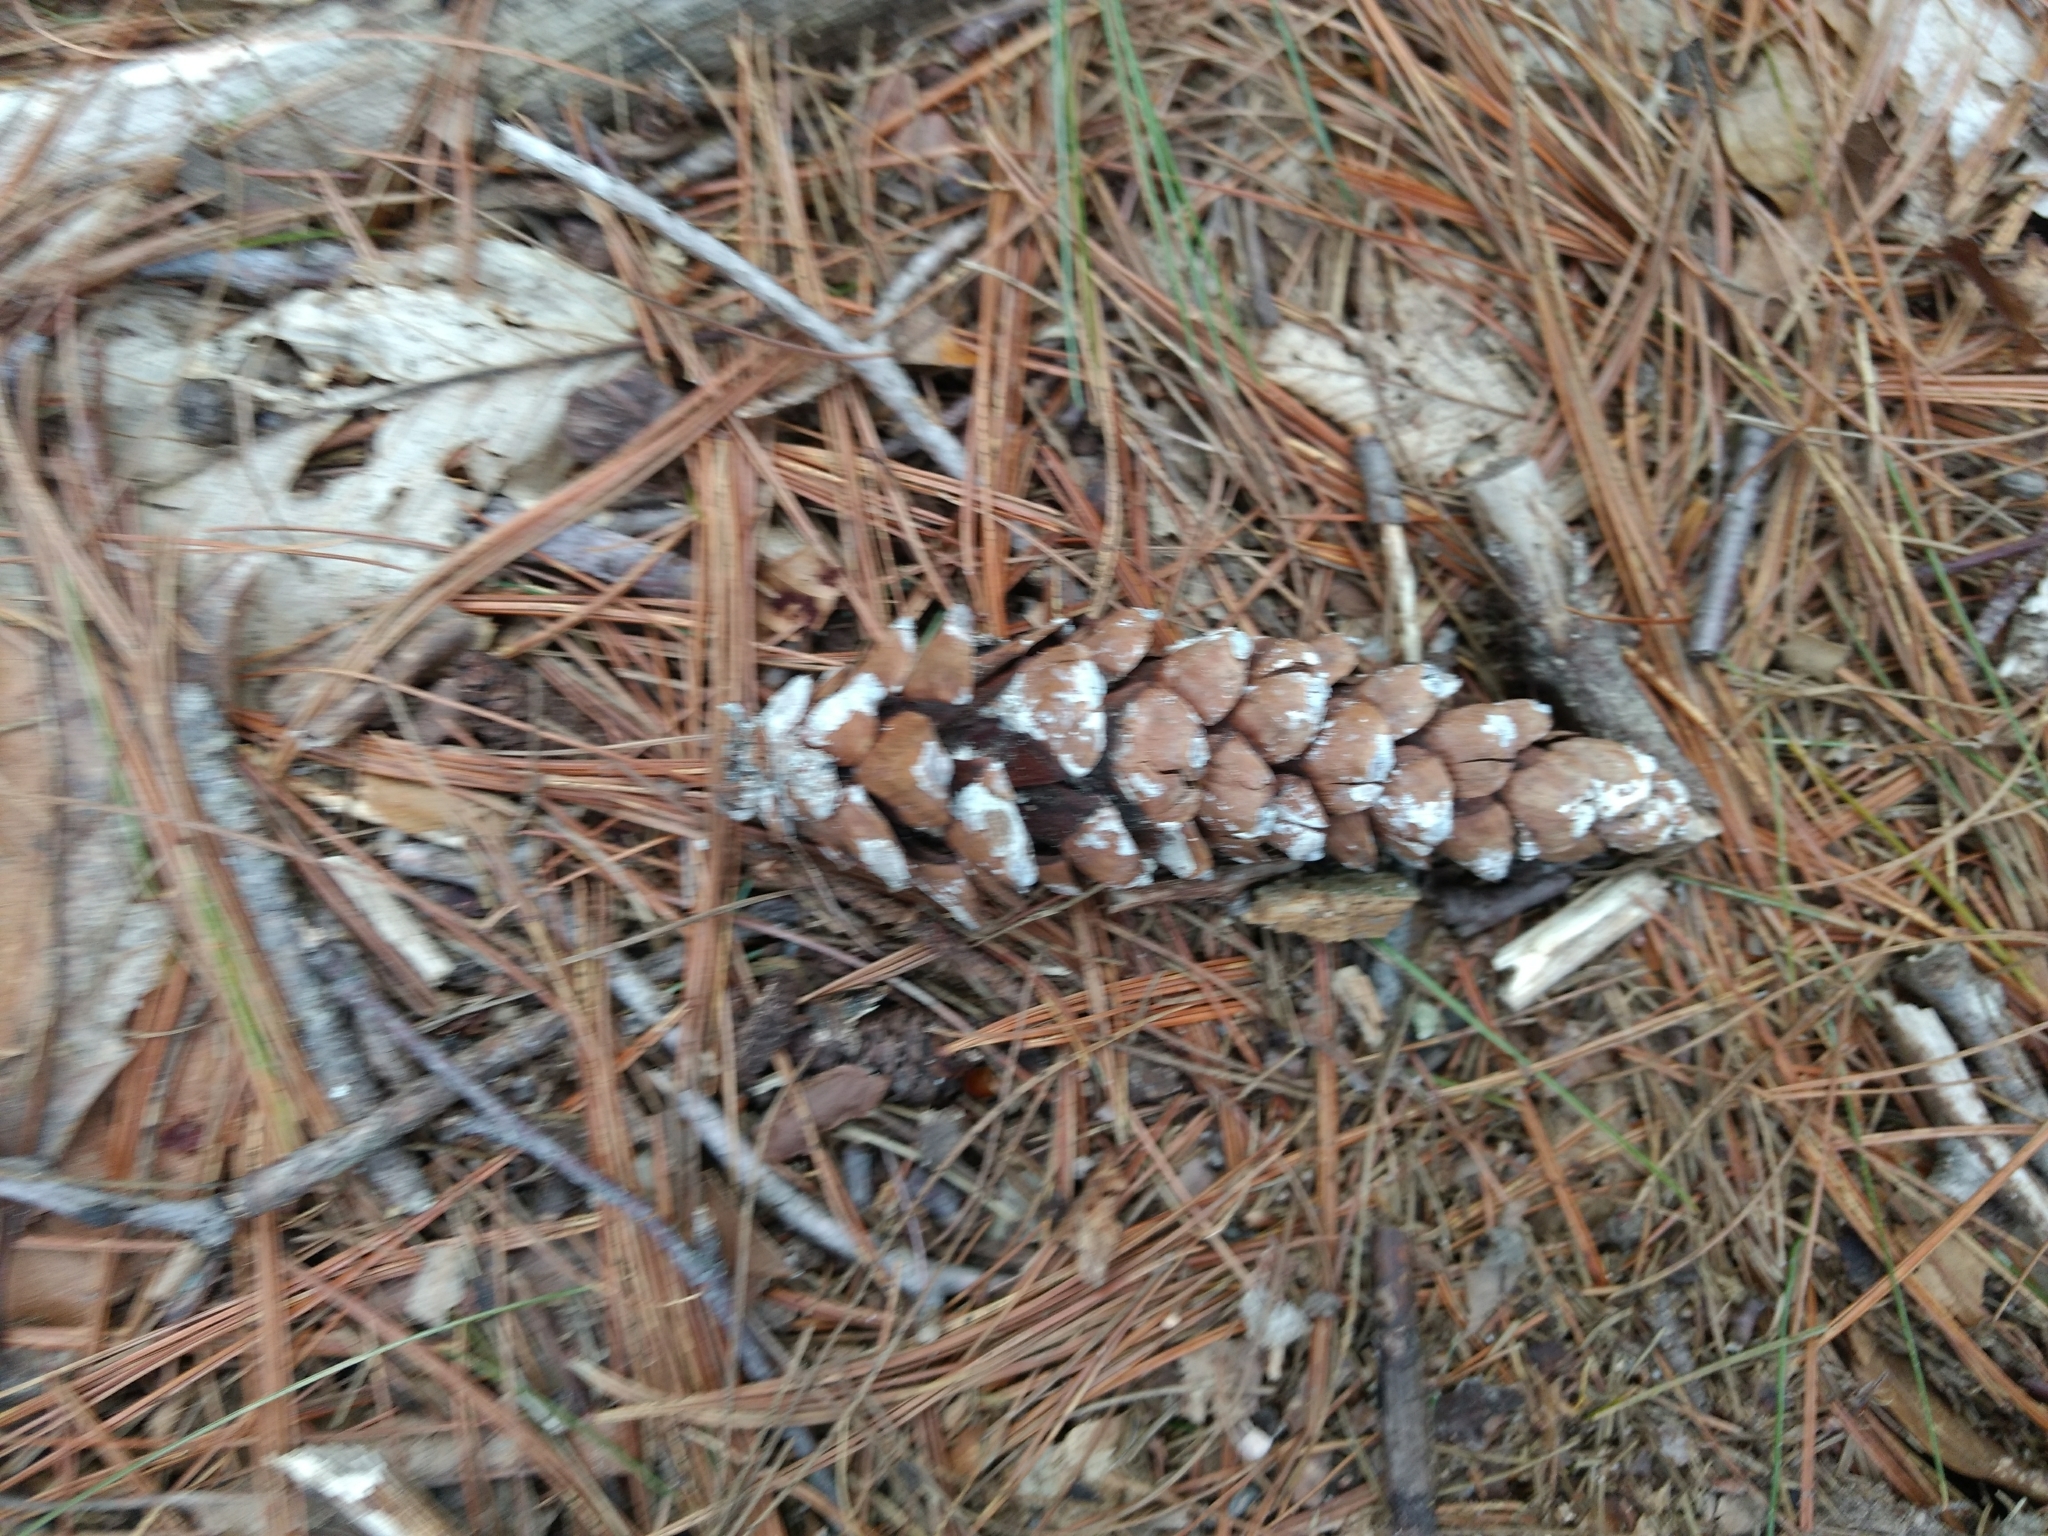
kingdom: Plantae
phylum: Tracheophyta
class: Pinopsida
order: Pinales
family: Pinaceae
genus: Pinus
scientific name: Pinus strobus
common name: Weymouth pine
